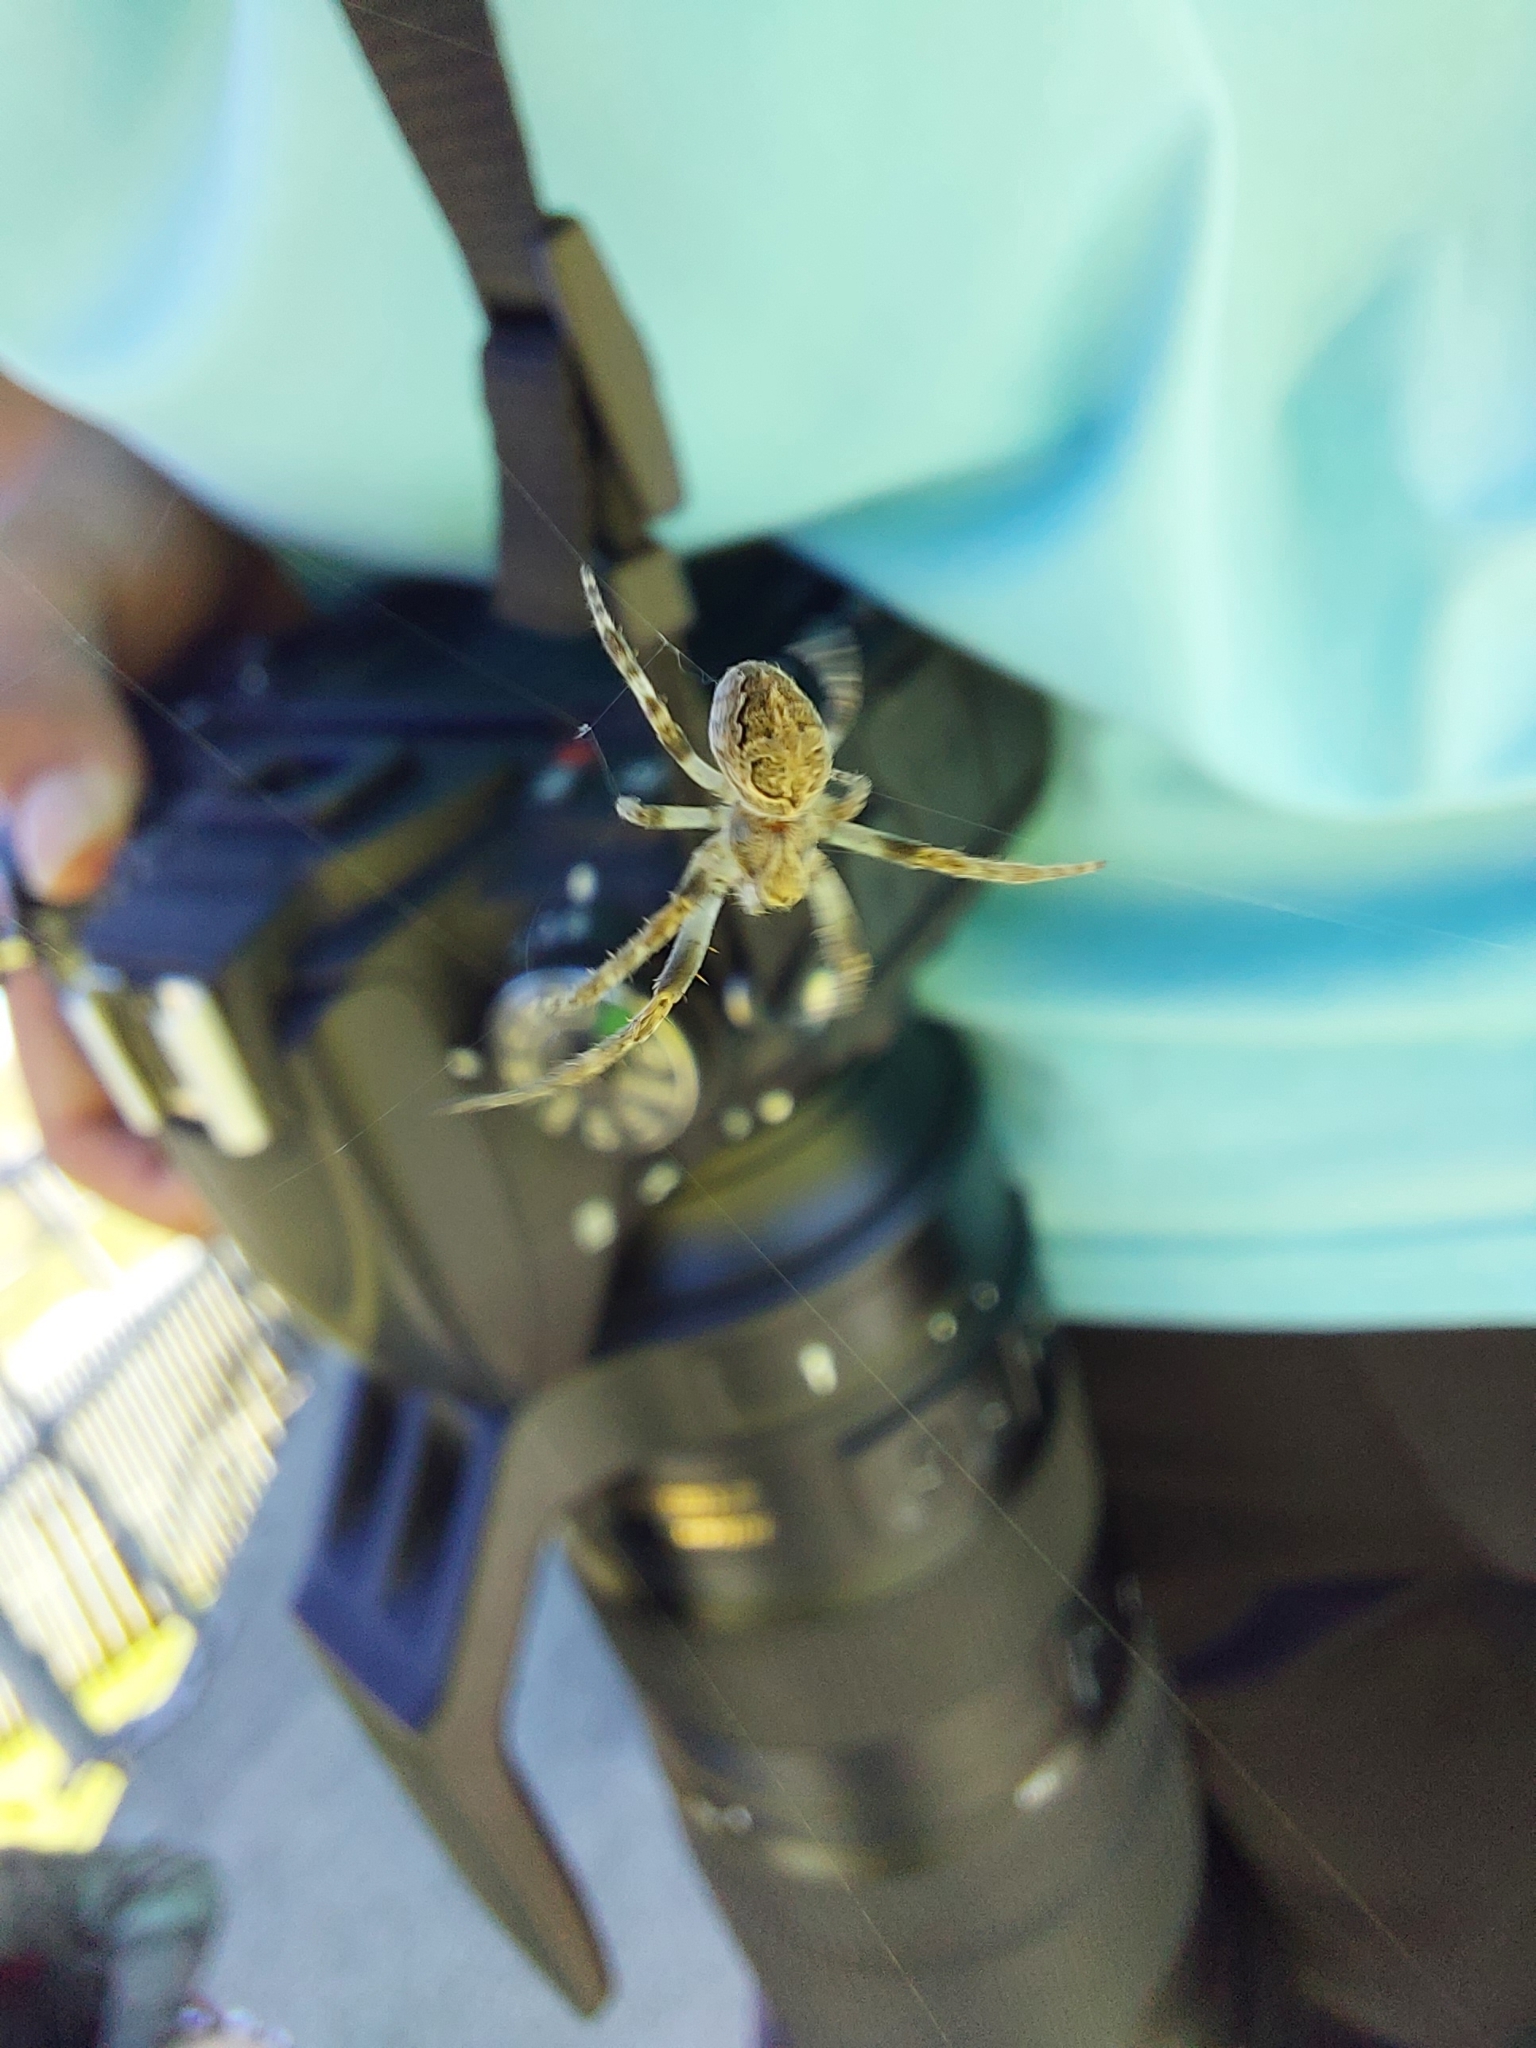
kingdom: Animalia
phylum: Arthropoda
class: Arachnida
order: Araneae
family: Araneidae
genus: Larinioides
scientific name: Larinioides sclopetarius
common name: Bridge orbweaver
